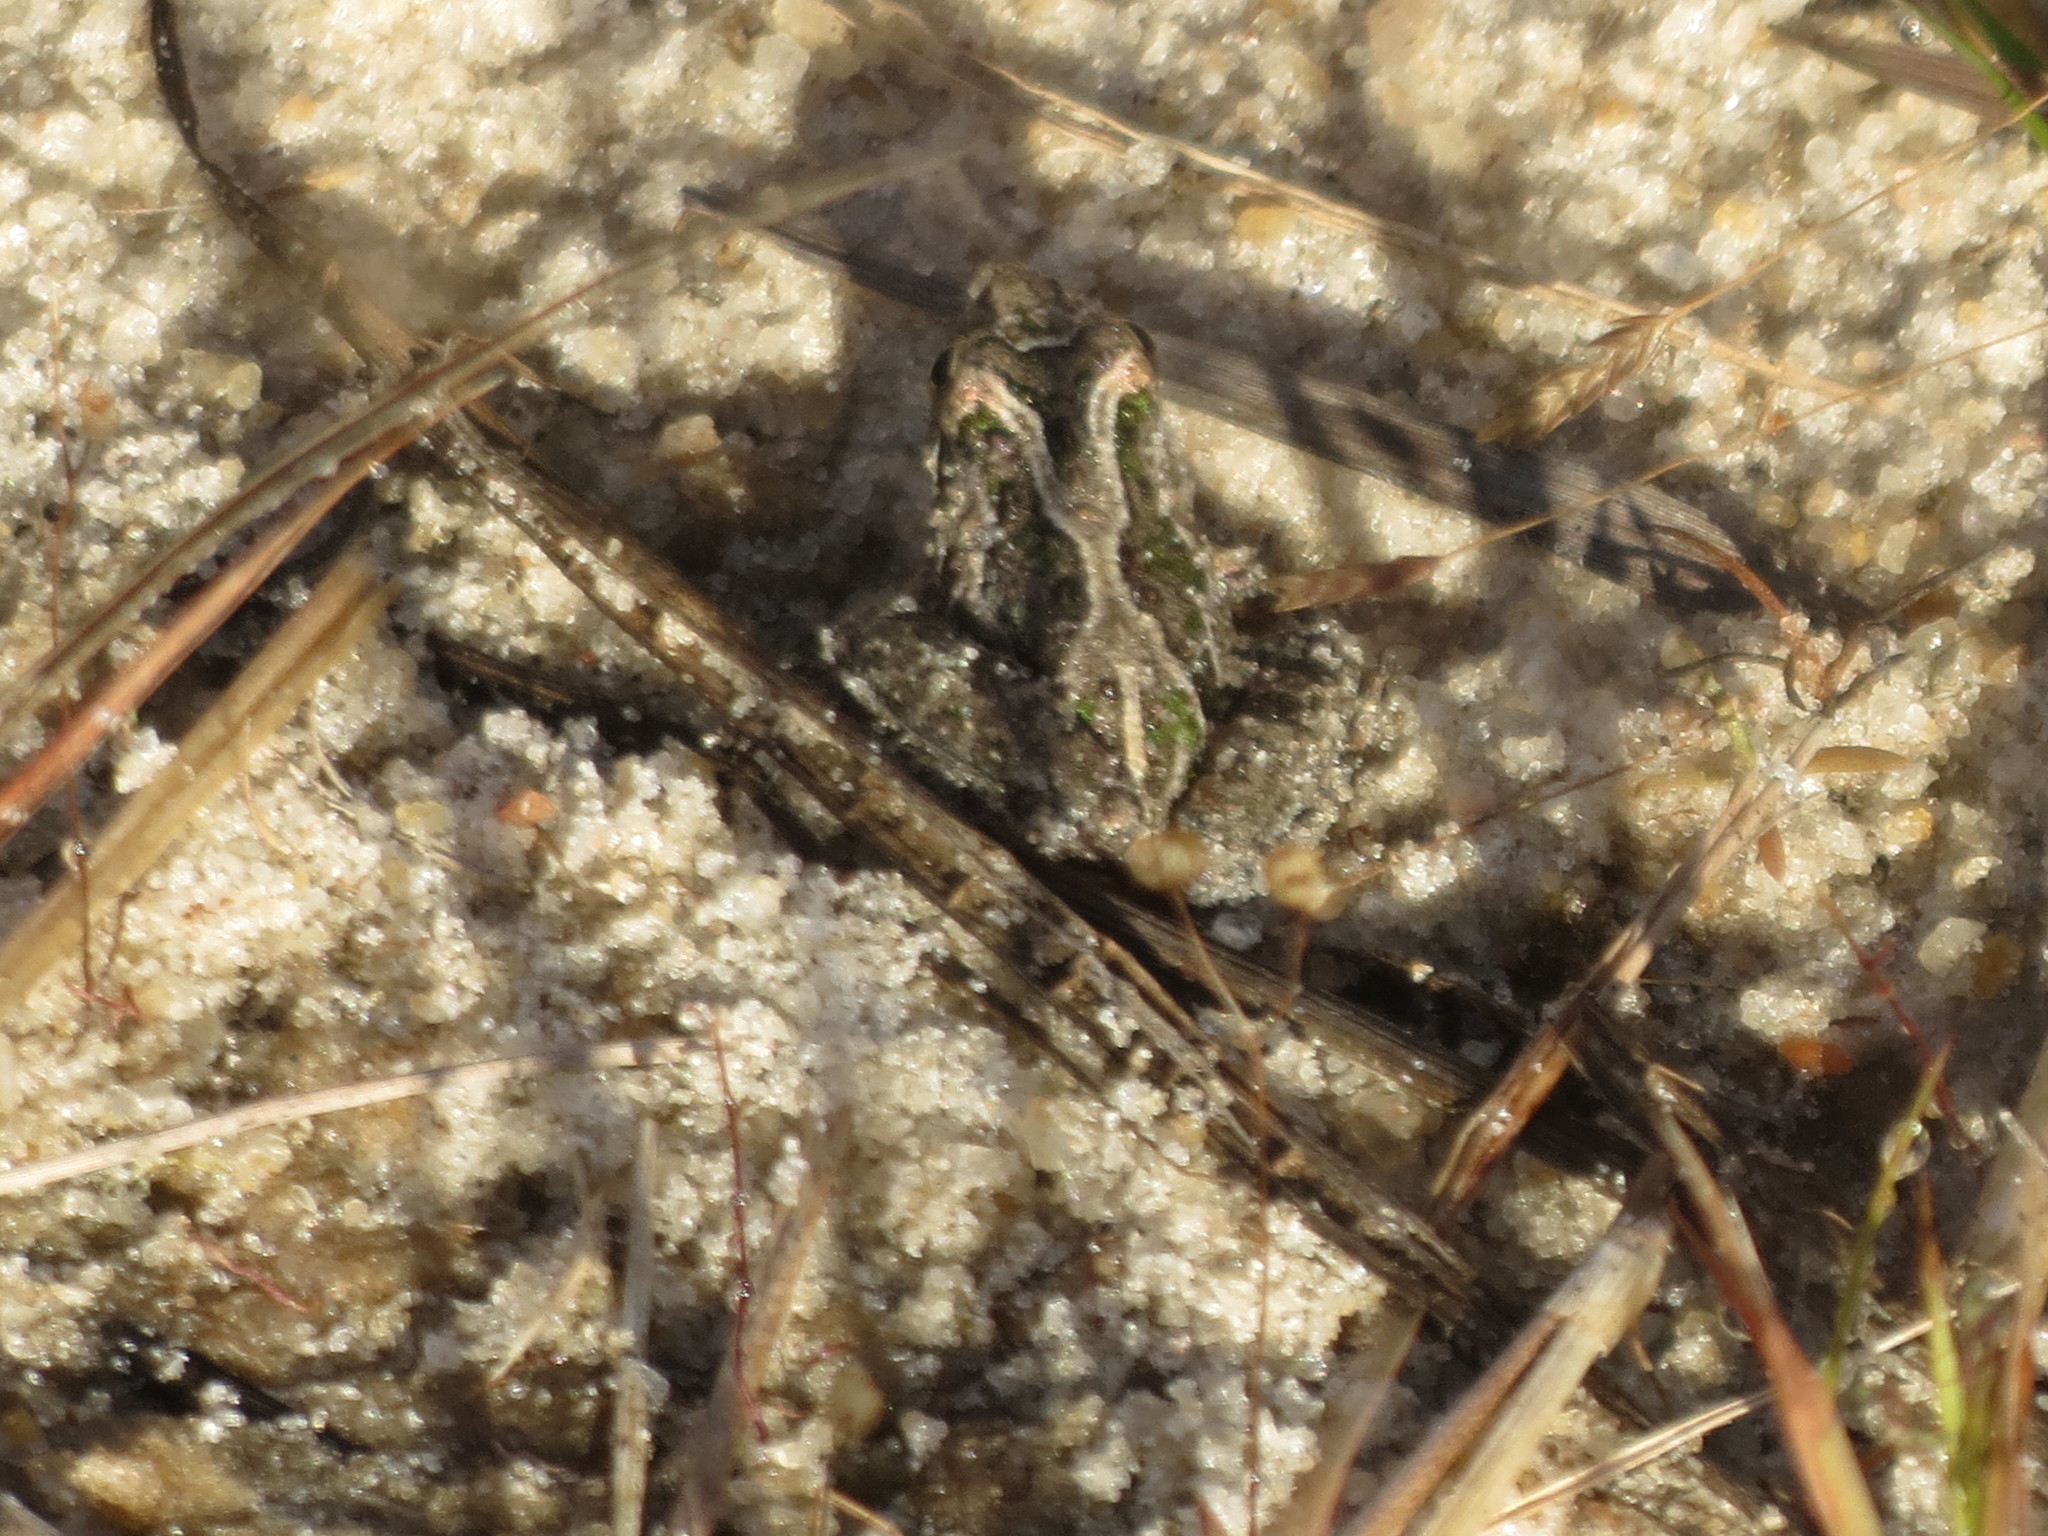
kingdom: Animalia
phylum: Chordata
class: Amphibia
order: Anura
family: Hylidae
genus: Acris
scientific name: Acris gryllus
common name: Southern cricket frog
